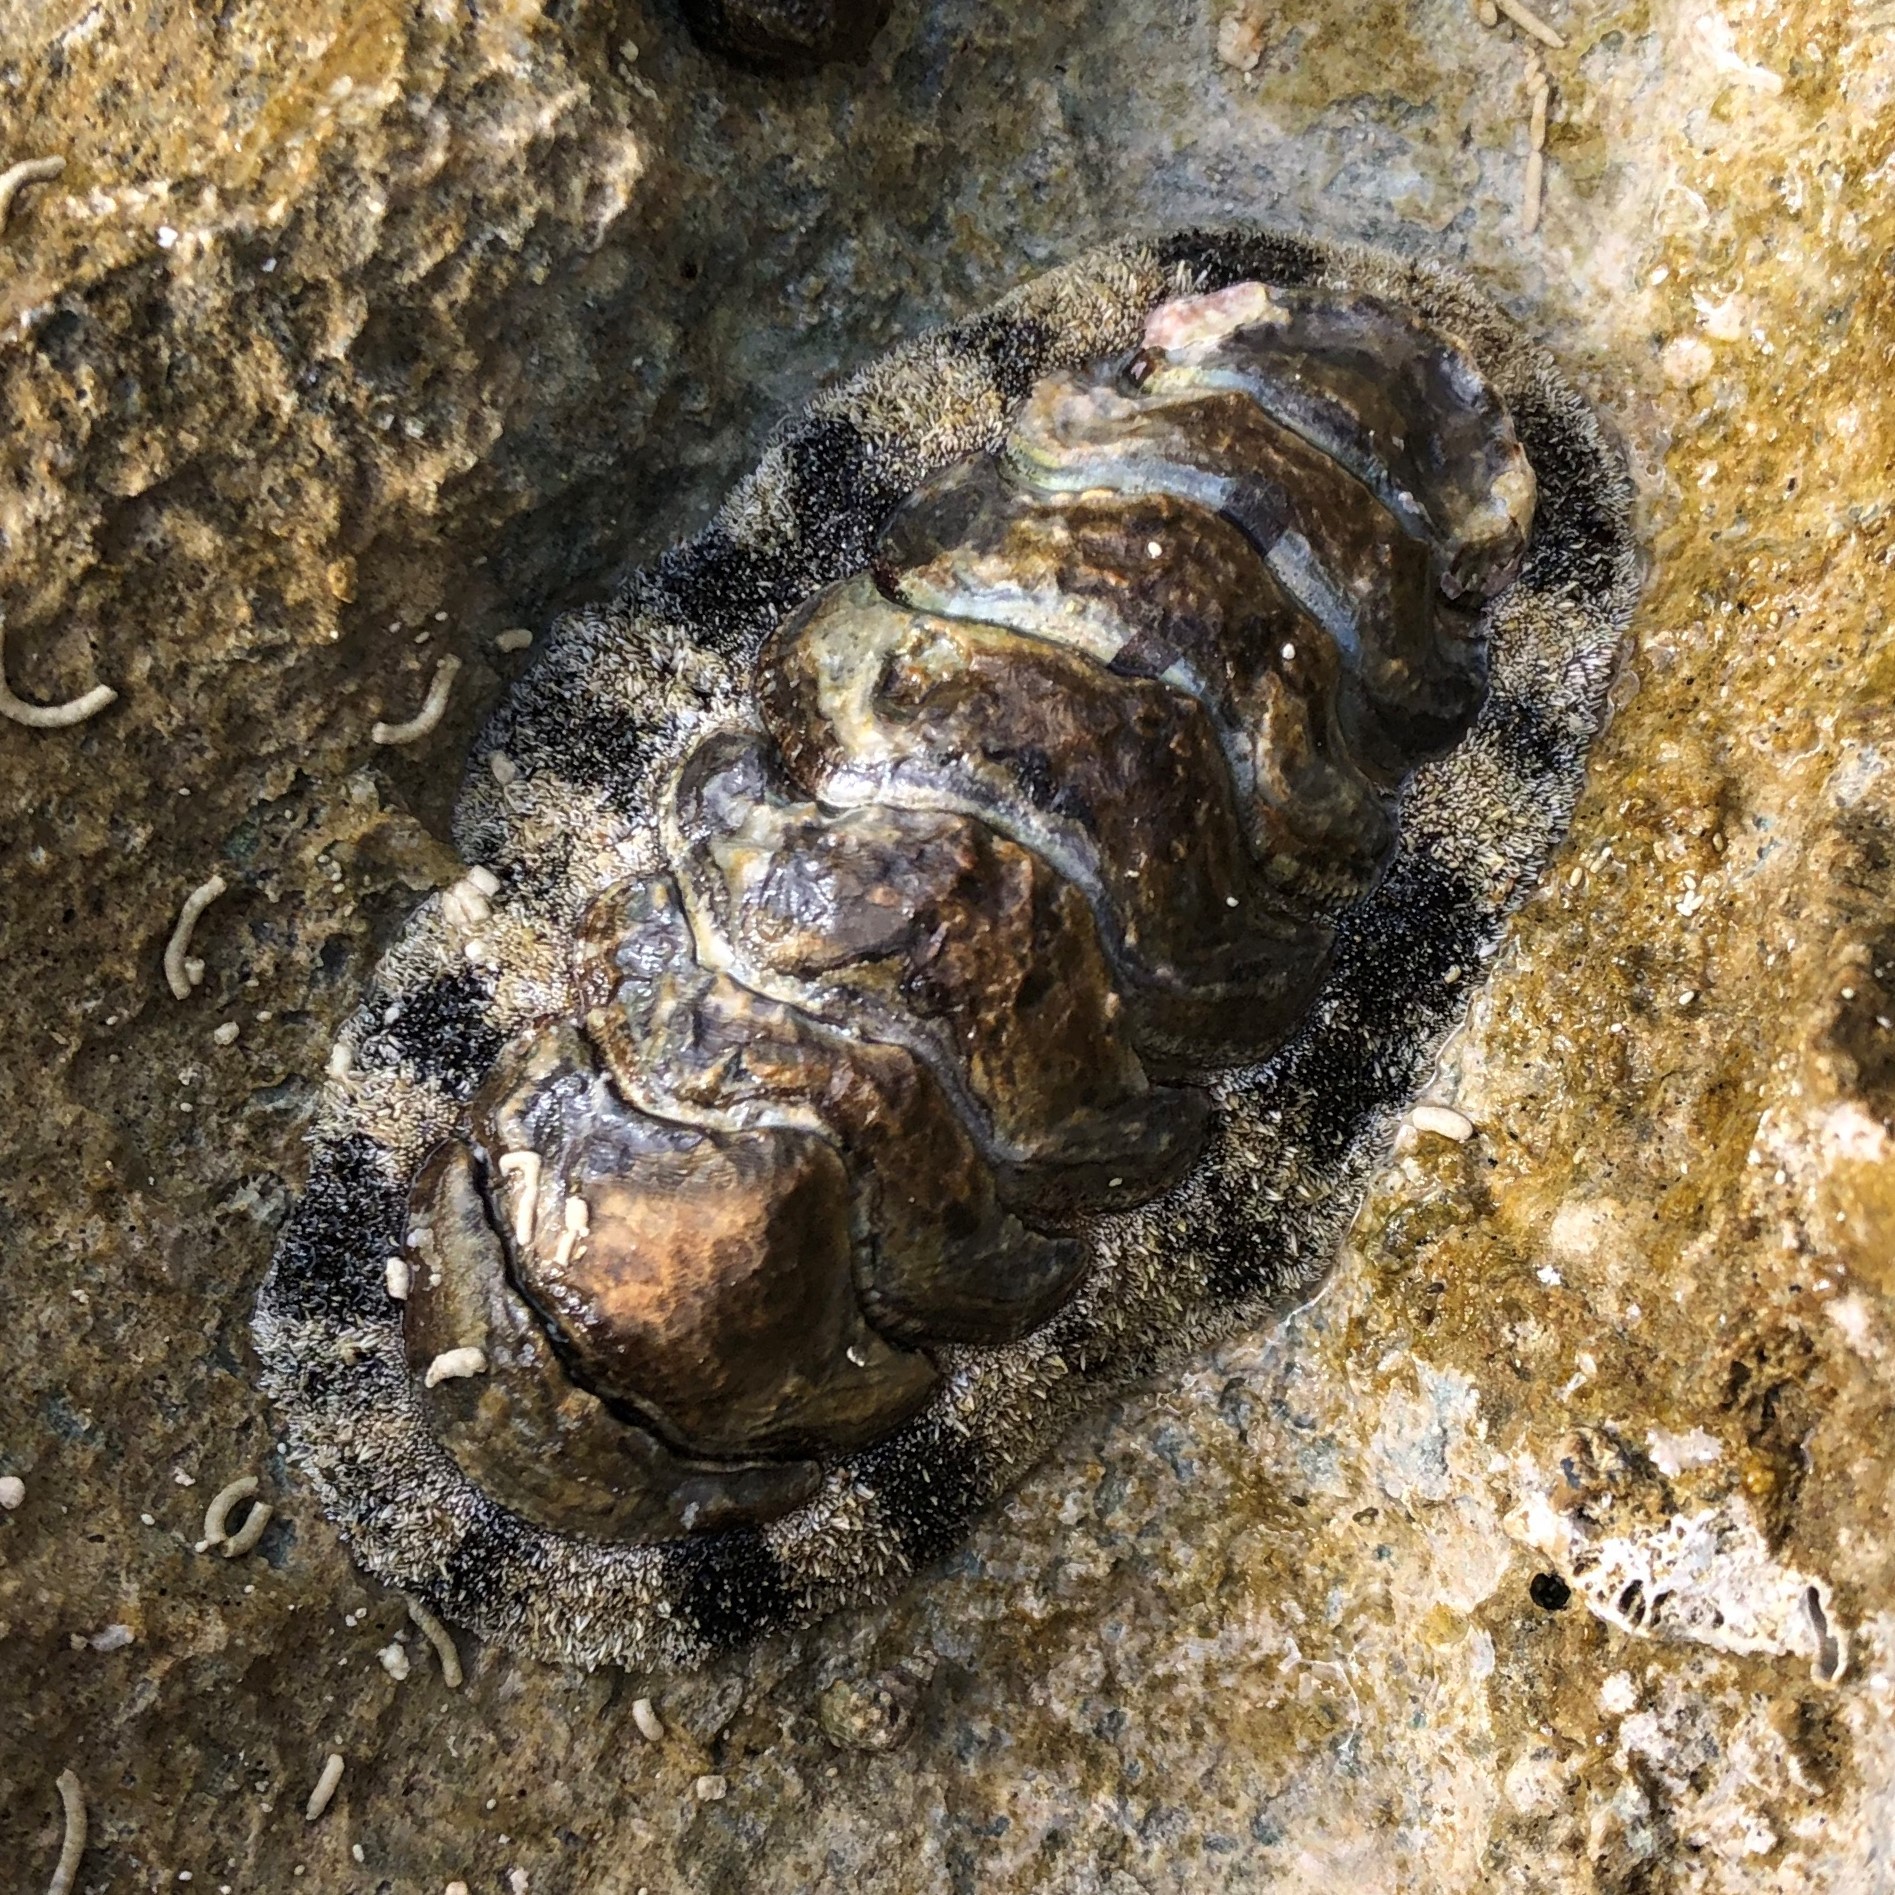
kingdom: Animalia
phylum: Mollusca
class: Polyplacophora
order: Chitonida
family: Chitonidae
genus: Acanthopleura
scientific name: Acanthopleura granulata
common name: West indian fuzzy chiton
